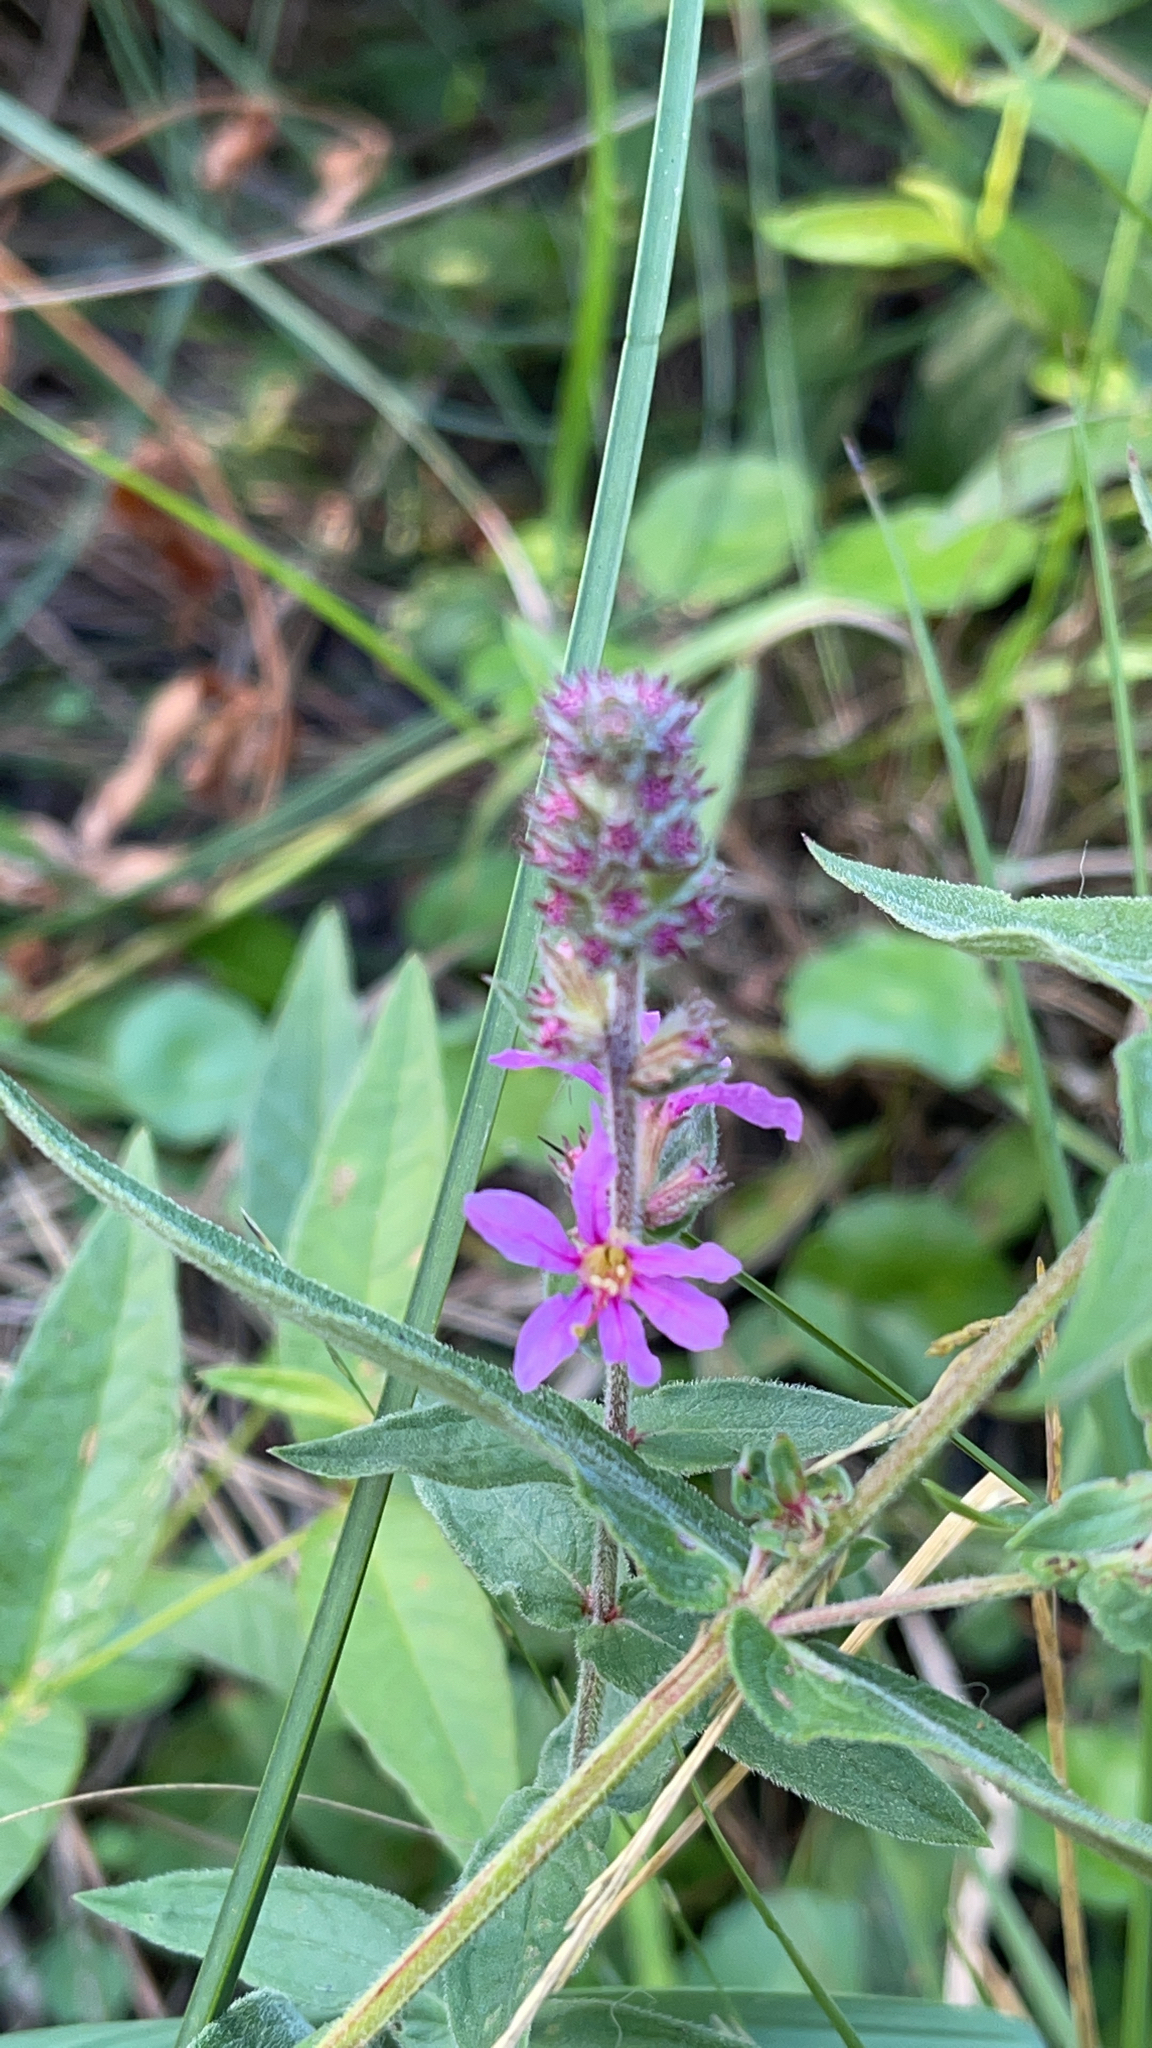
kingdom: Plantae
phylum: Tracheophyta
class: Magnoliopsida
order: Myrtales
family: Lythraceae
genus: Lythrum
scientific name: Lythrum salicaria
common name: Purple loosestrife
